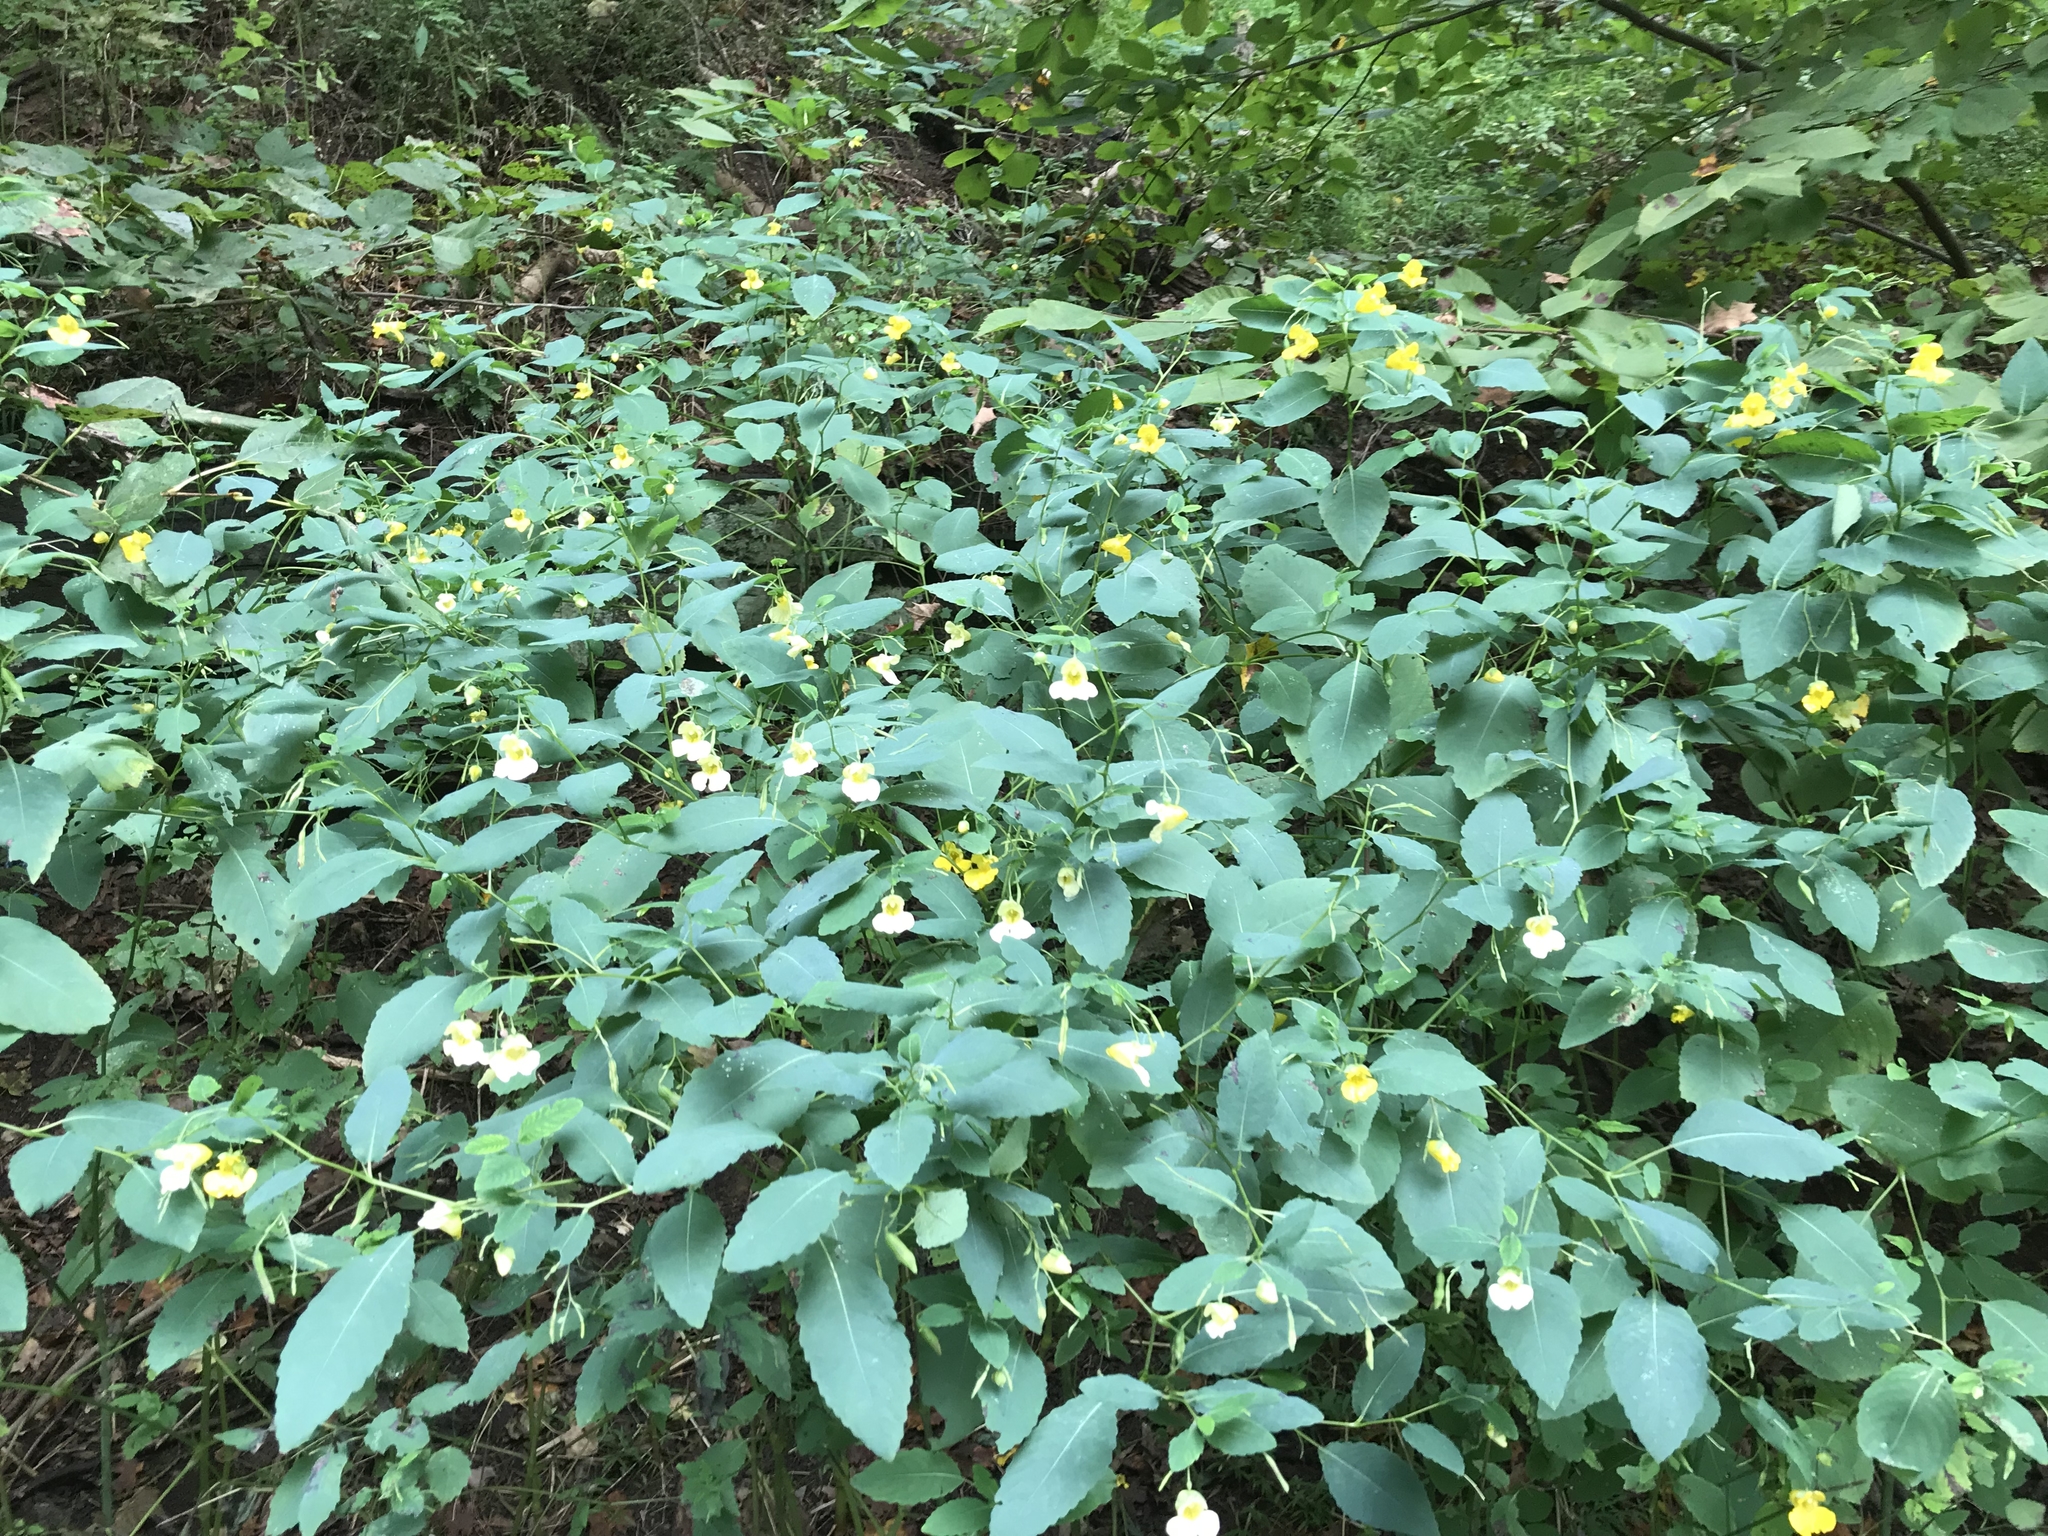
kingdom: Plantae
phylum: Tracheophyta
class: Magnoliopsida
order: Ericales
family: Balsaminaceae
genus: Impatiens
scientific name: Impatiens pallida
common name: Pale snapweed
